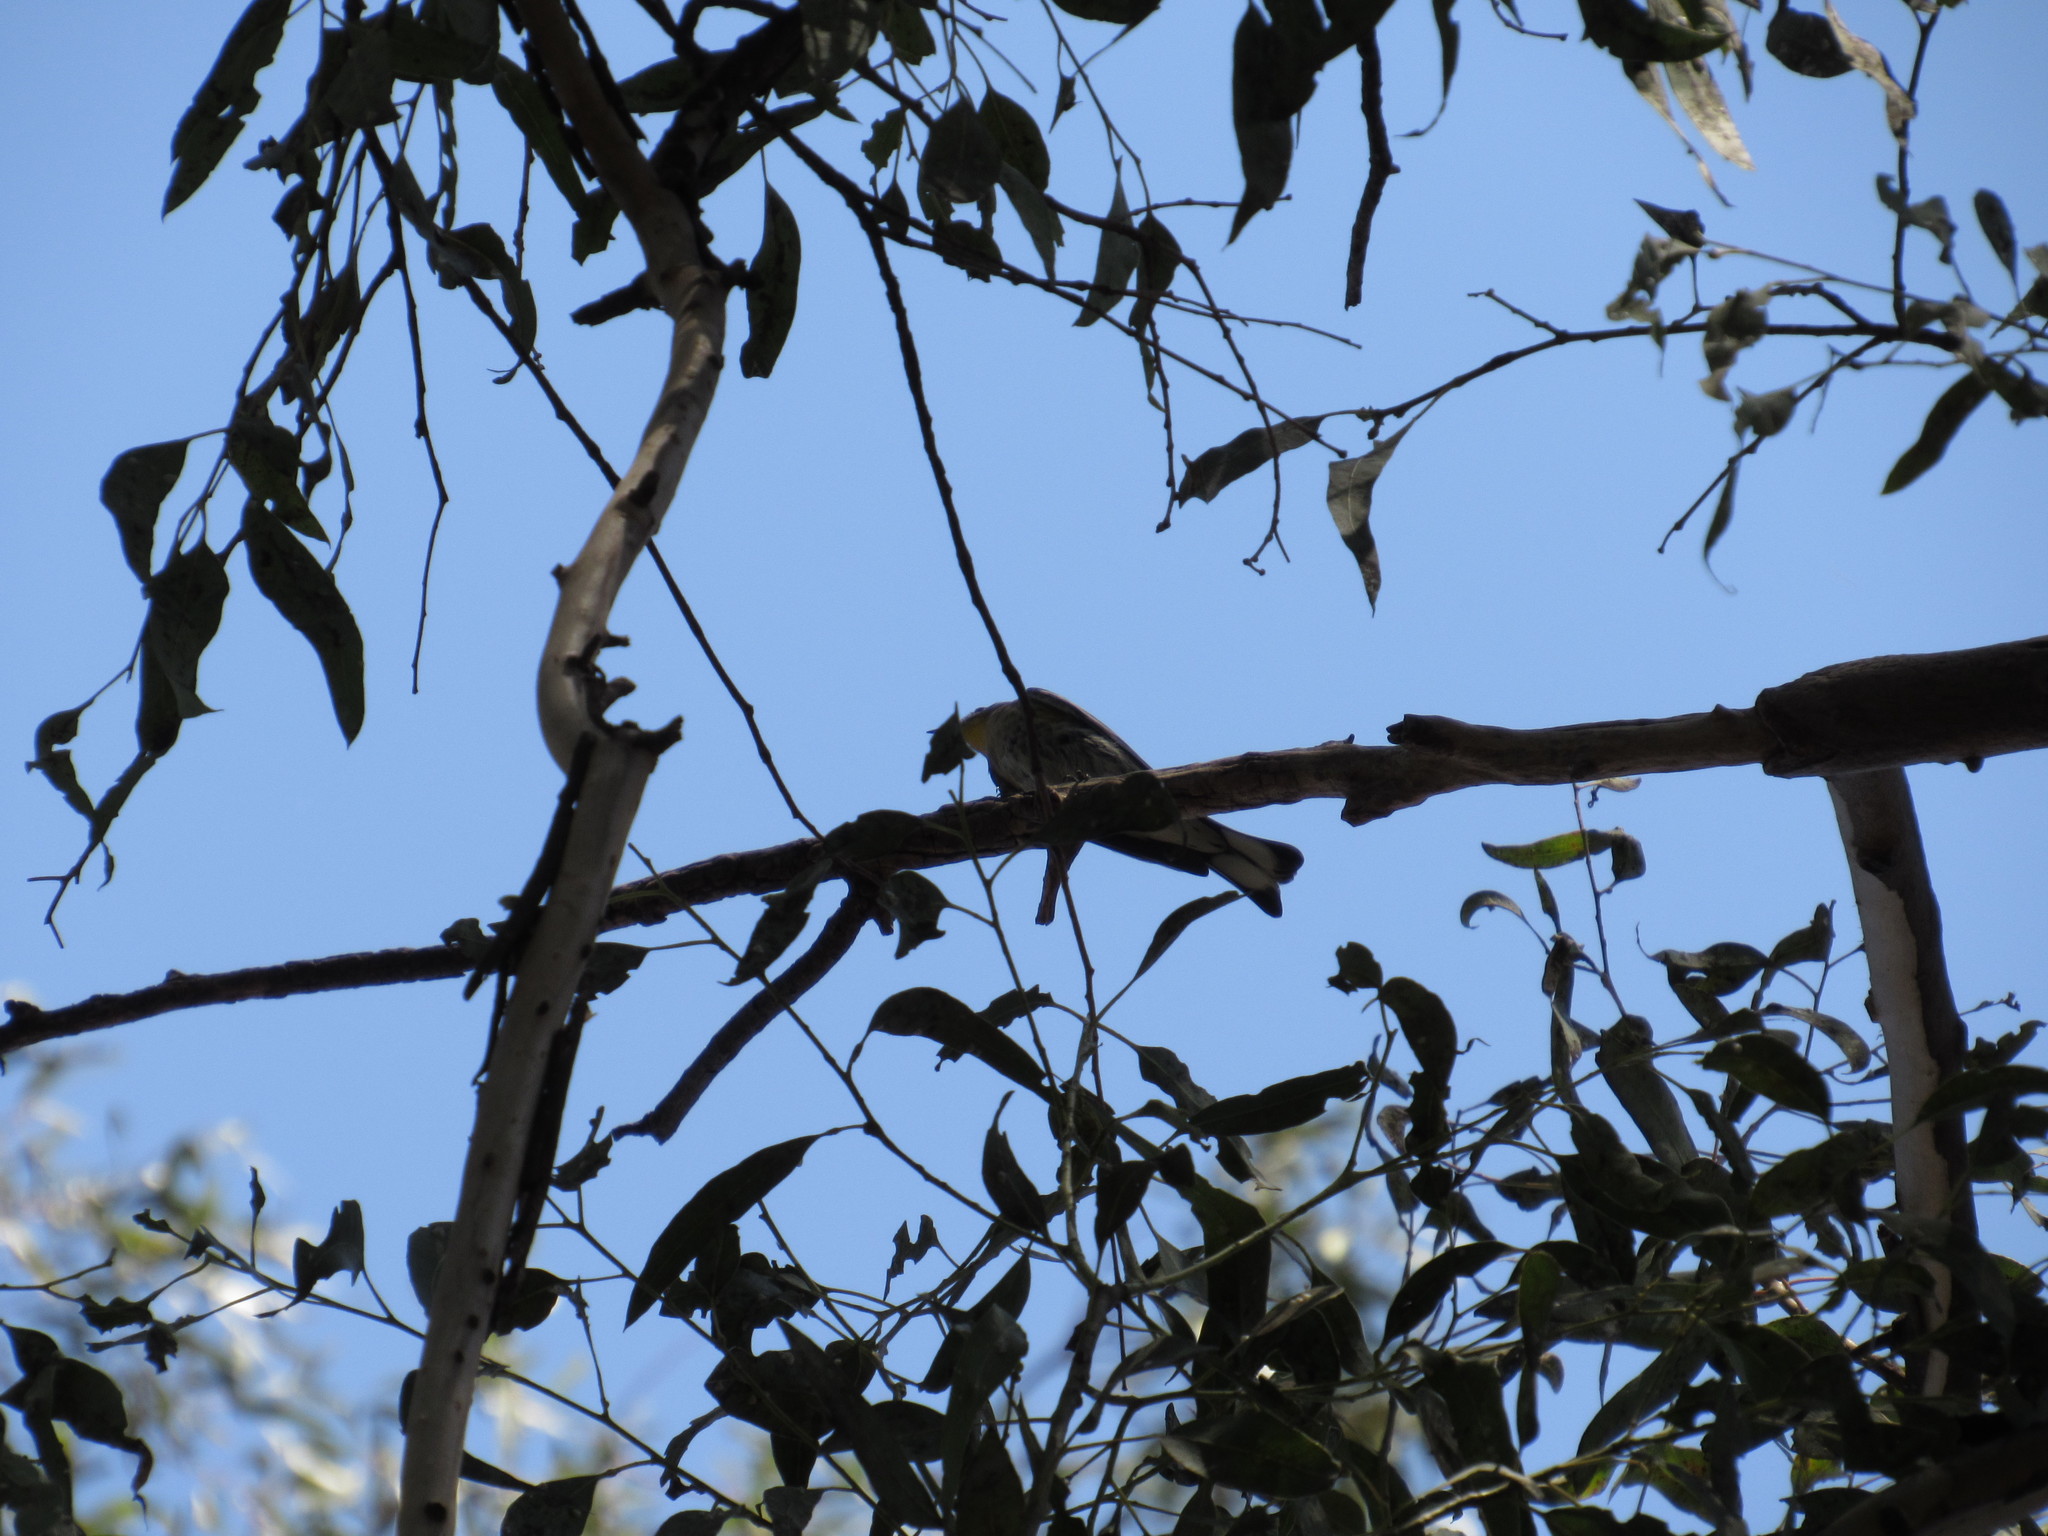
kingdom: Animalia
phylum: Chordata
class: Aves
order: Passeriformes
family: Parulidae
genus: Setophaga
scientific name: Setophaga coronata
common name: Myrtle warbler
